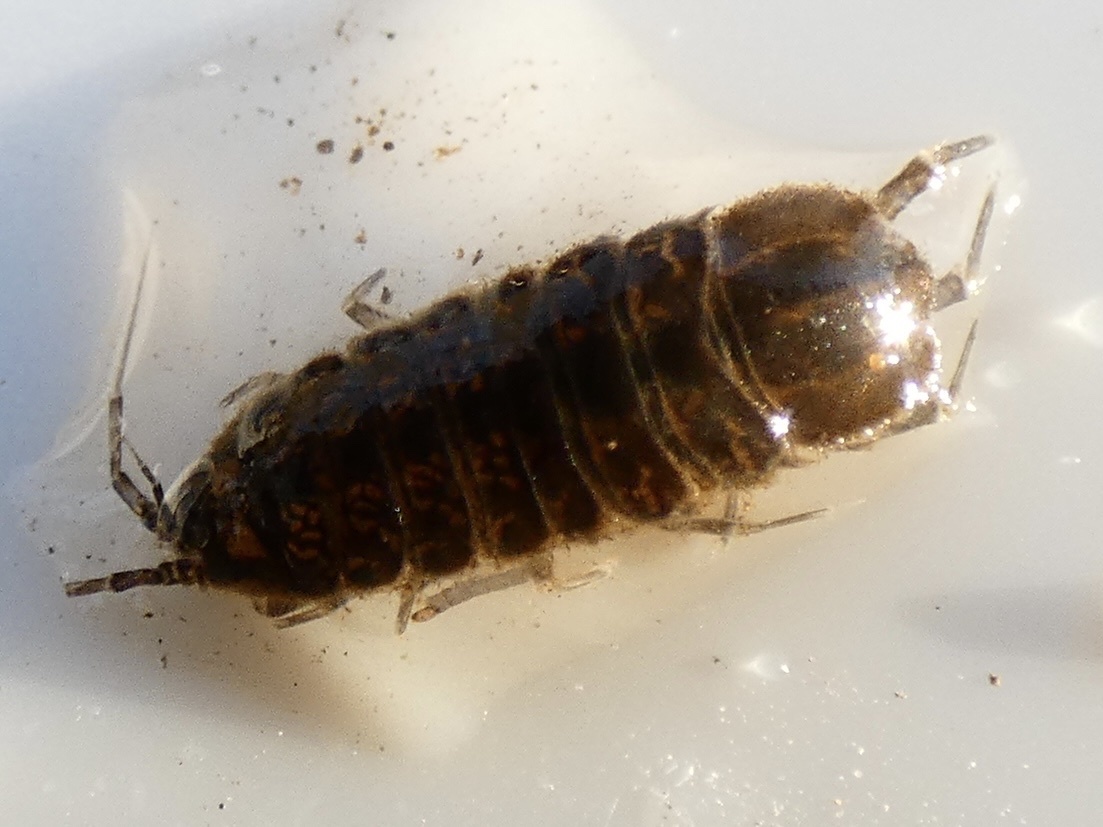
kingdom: Animalia
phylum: Arthropoda
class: Malacostraca
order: Isopoda
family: Asellidae
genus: Asellus
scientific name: Asellus aquaticus
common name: Water hog lice/slaters
